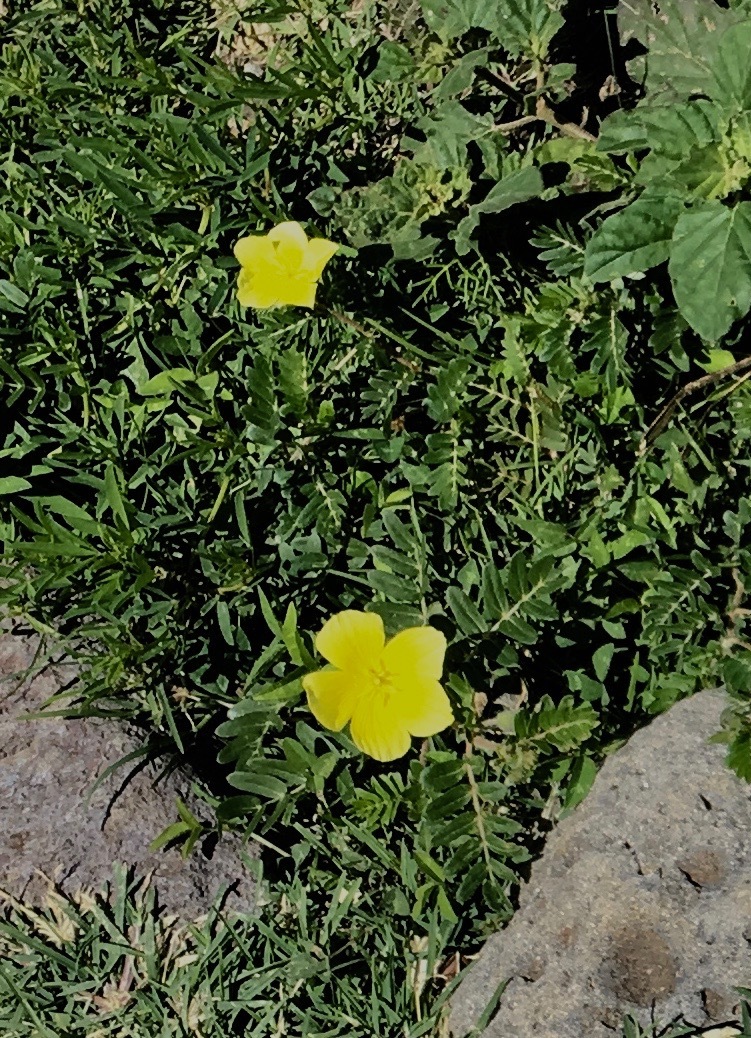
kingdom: Plantae
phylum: Tracheophyta
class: Magnoliopsida
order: Zygophyllales
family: Zygophyllaceae
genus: Tribulus
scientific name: Tribulus cistoides
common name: Jamaican feverplant
